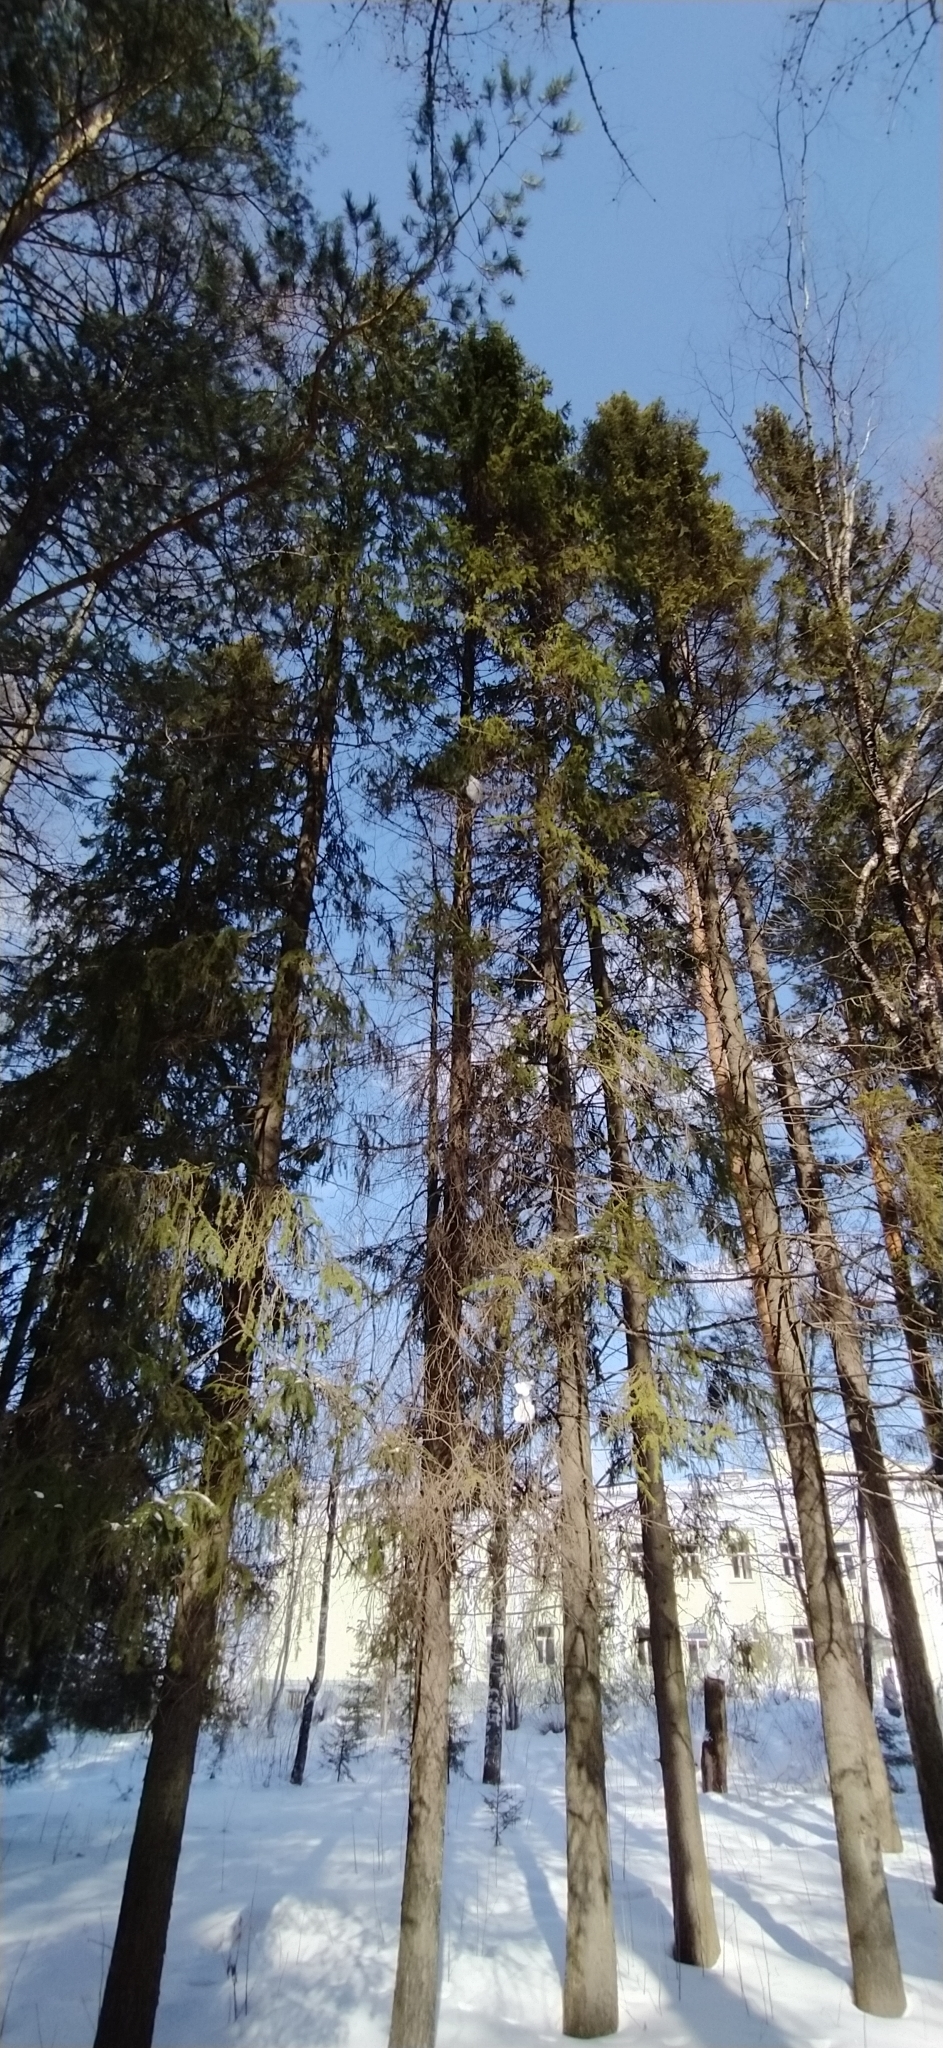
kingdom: Plantae
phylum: Tracheophyta
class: Pinopsida
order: Pinales
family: Pinaceae
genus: Picea
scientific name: Picea obovata
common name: Siberian spruce
